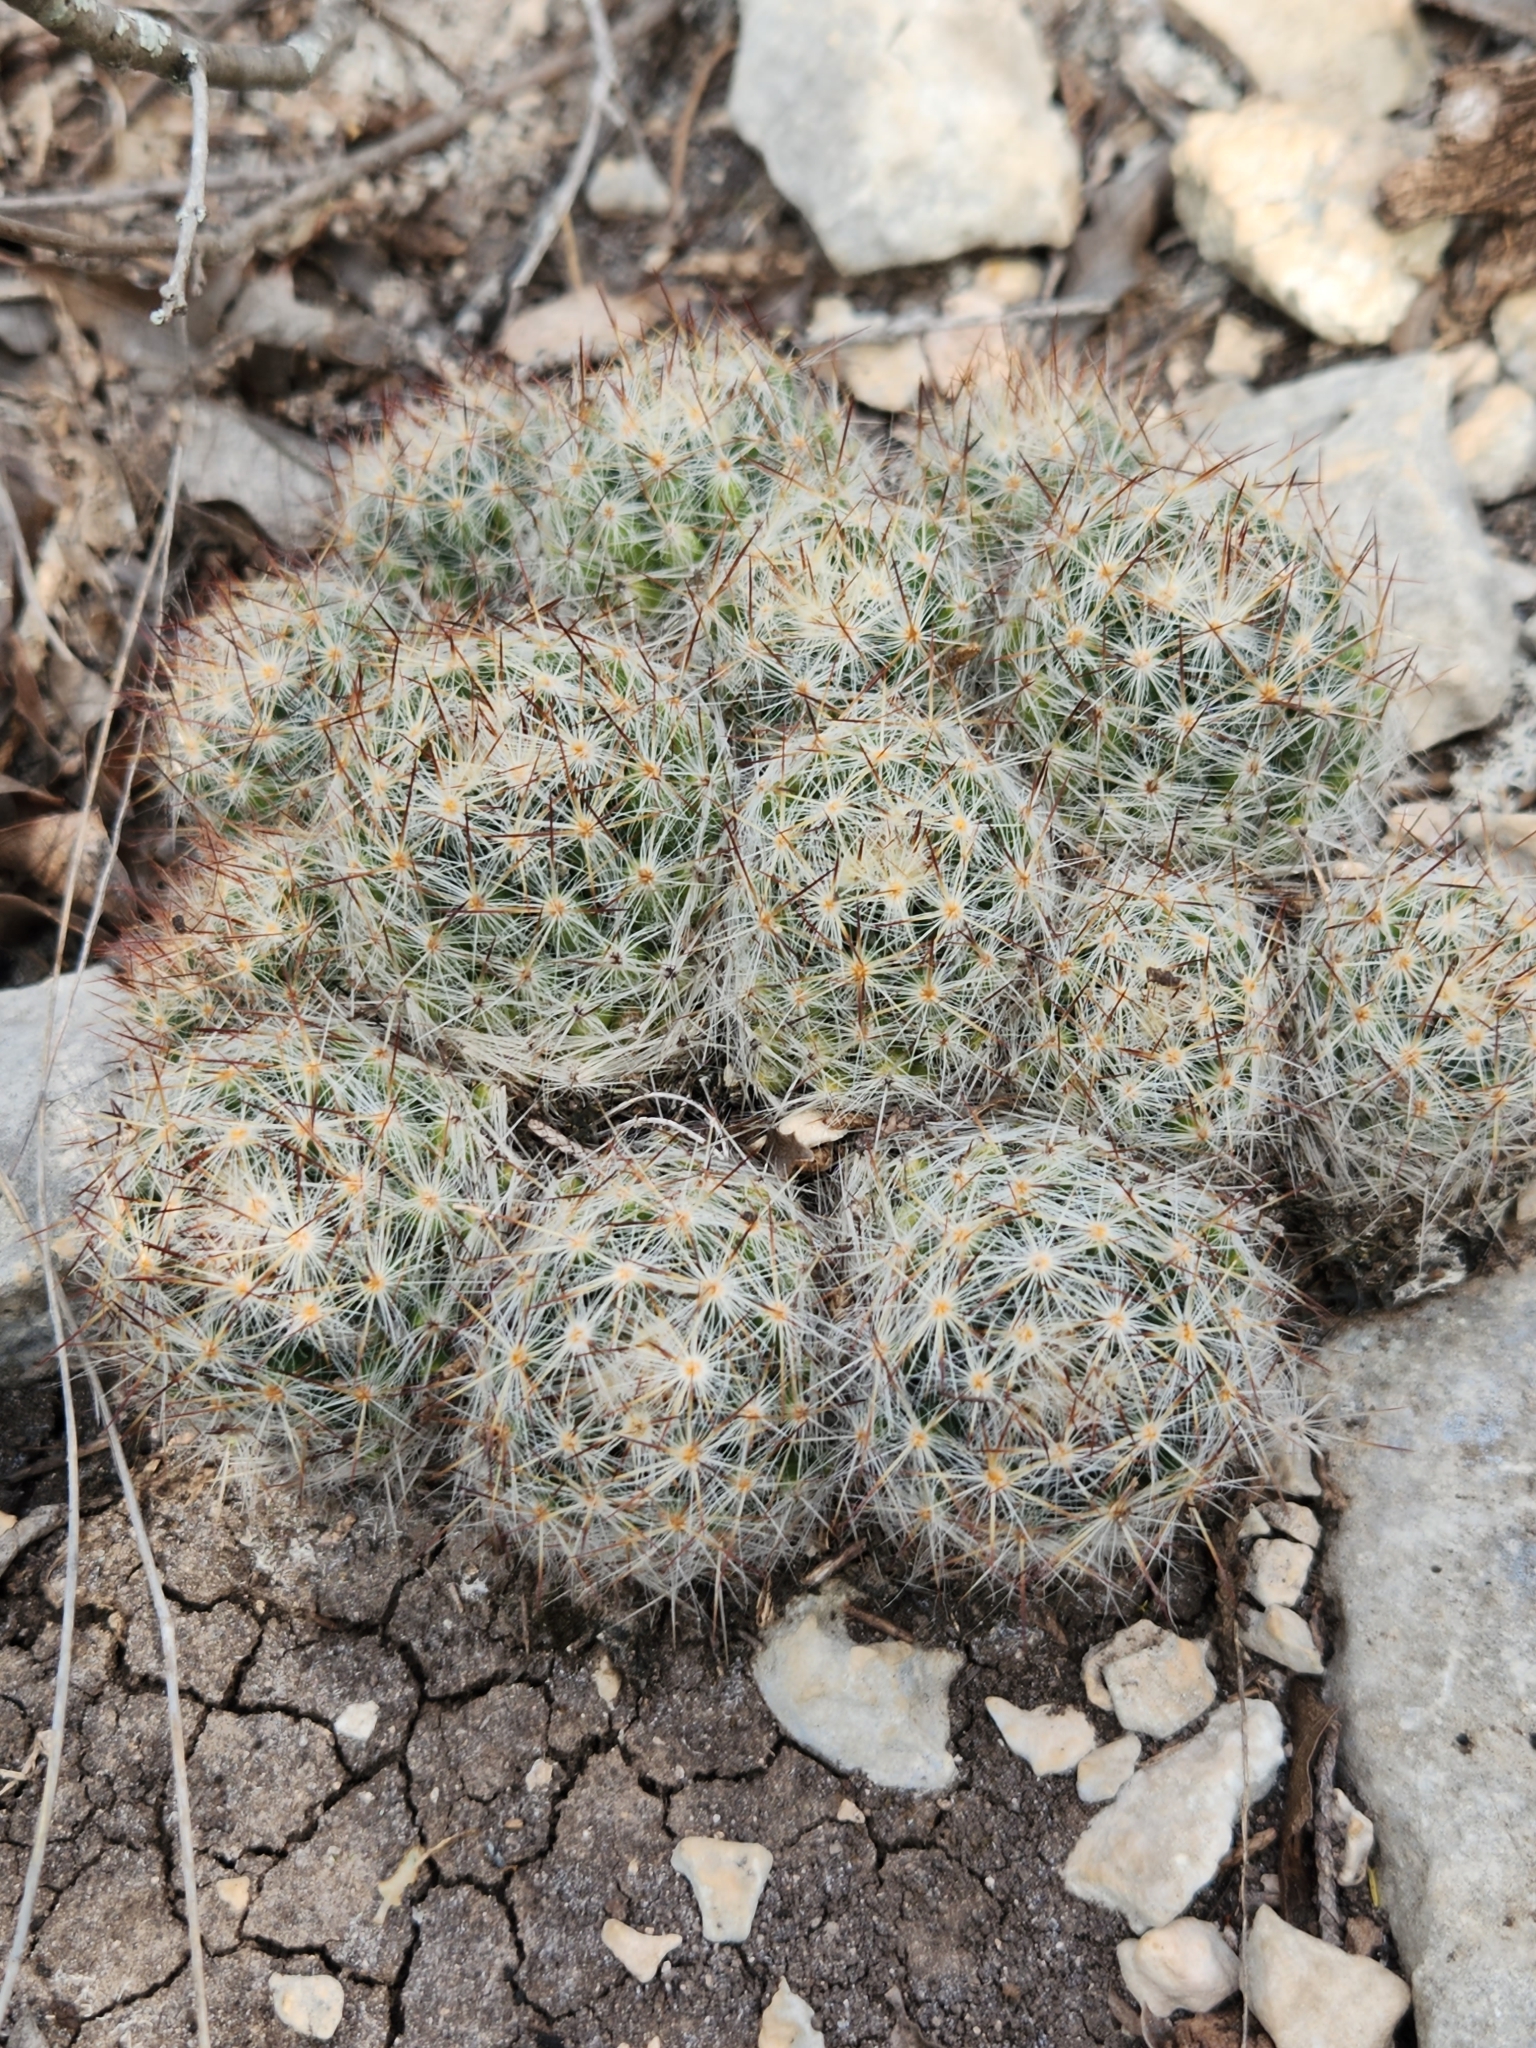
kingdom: Plantae
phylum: Tracheophyta
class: Magnoliopsida
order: Caryophyllales
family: Cactaceae
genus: Mammillaria
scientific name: Mammillaria prolifera
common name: Texas nipple cactus
